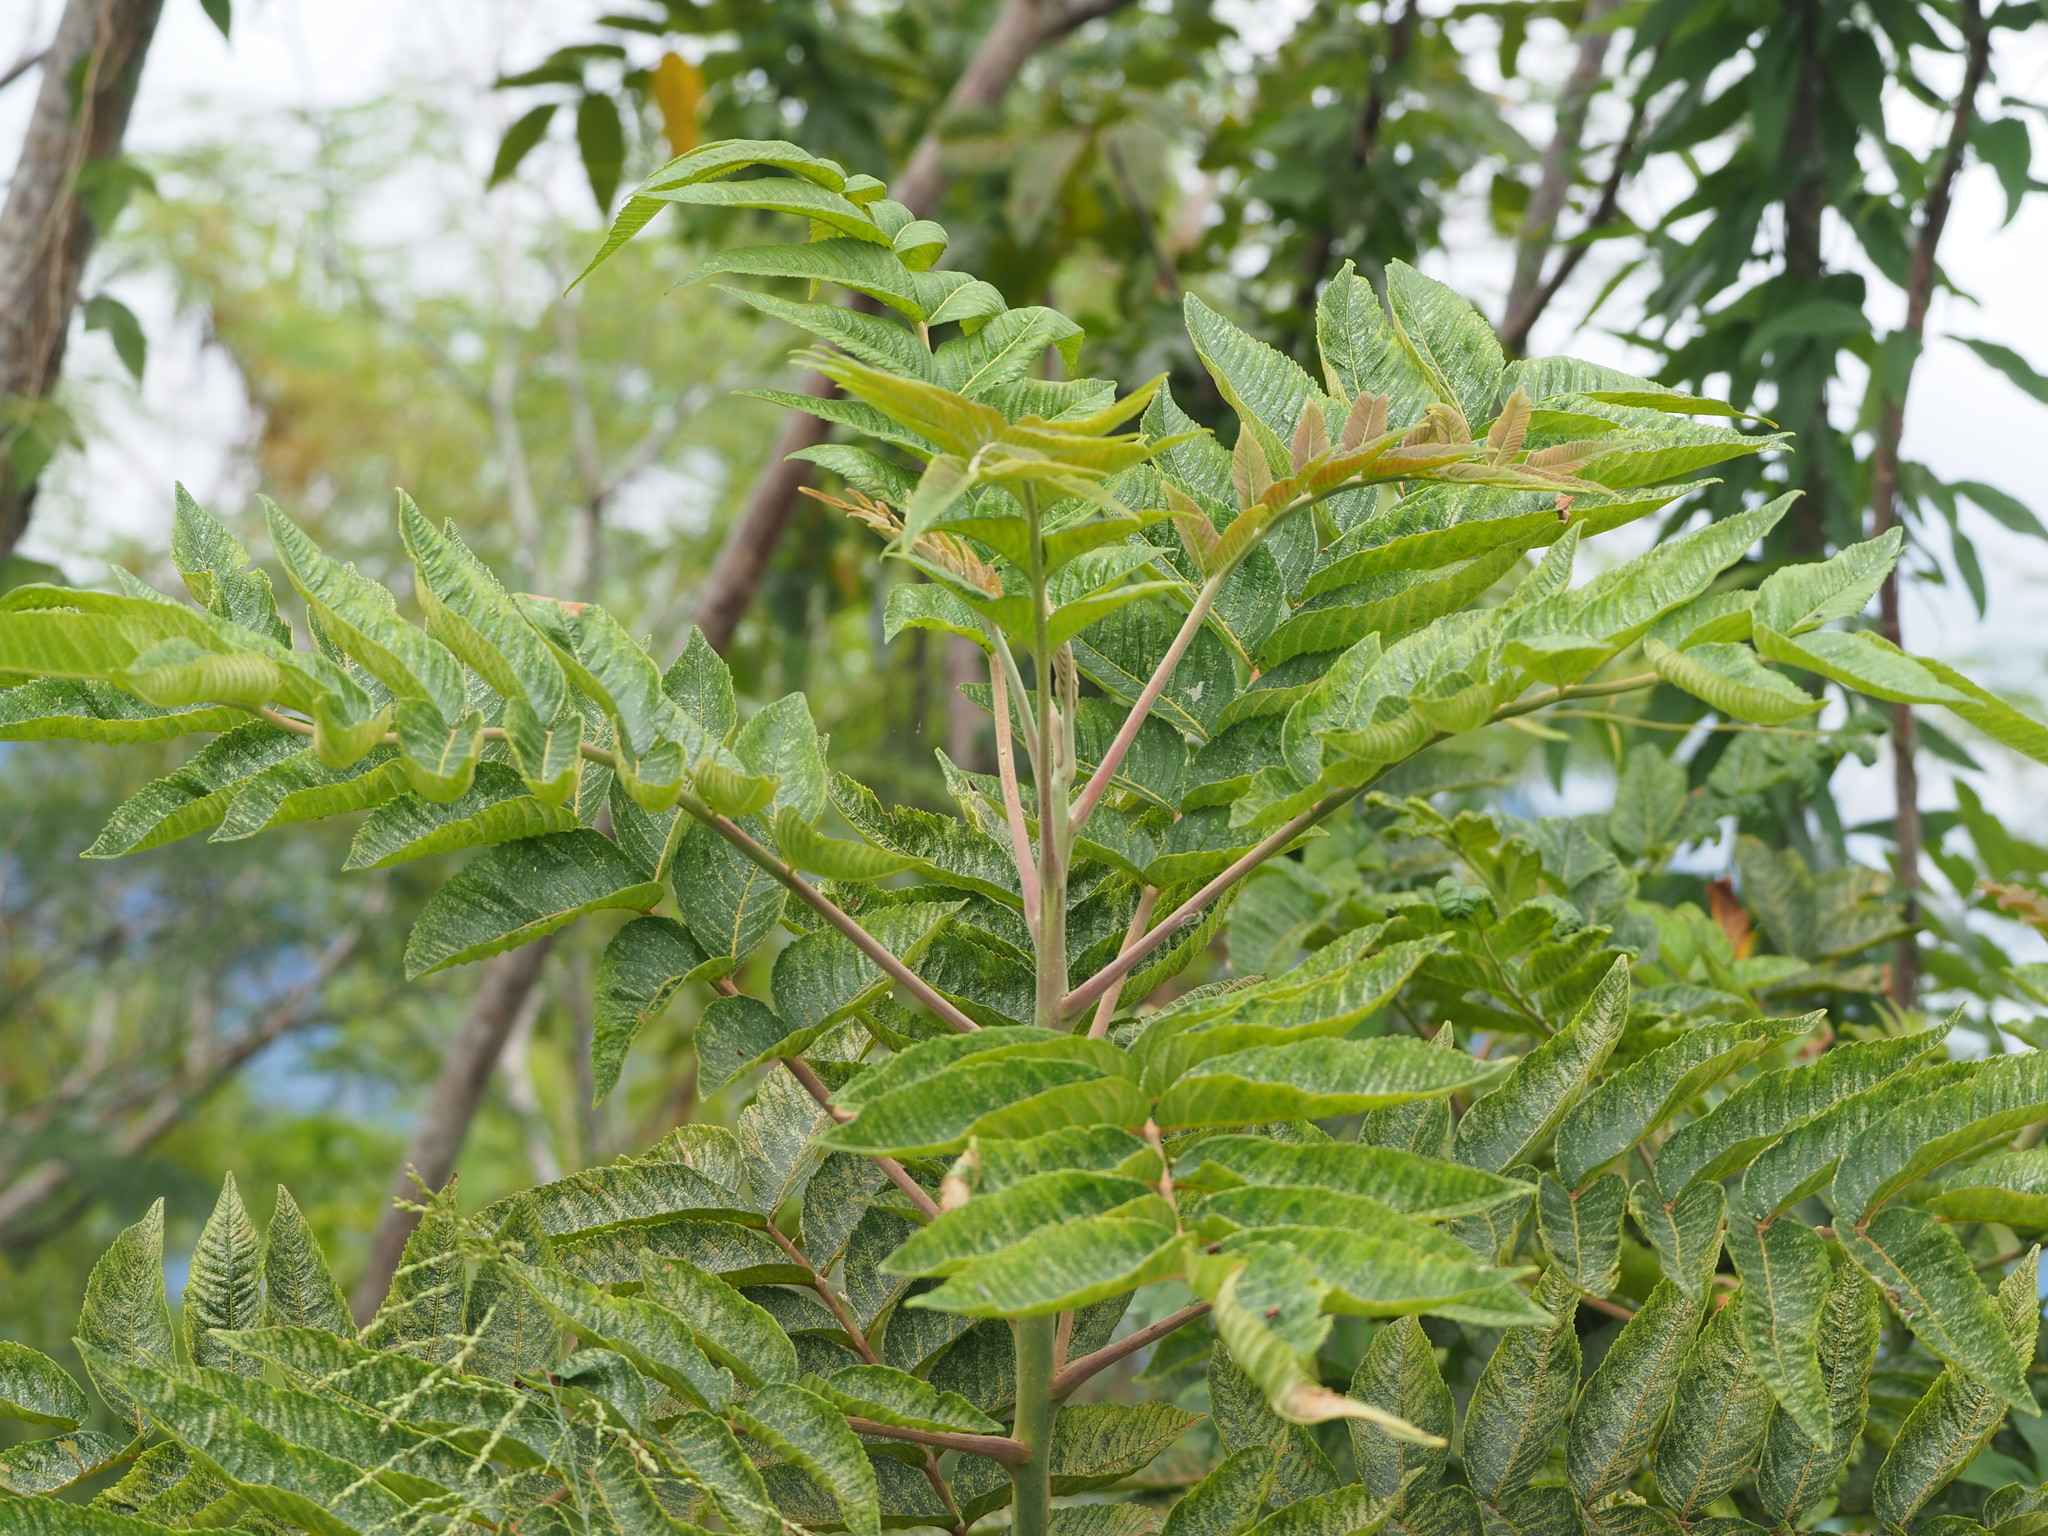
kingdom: Plantae
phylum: Tracheophyta
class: Magnoliopsida
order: Sapindales
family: Anacardiaceae
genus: Rhus
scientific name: Rhus chinensis
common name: Chinese gall
